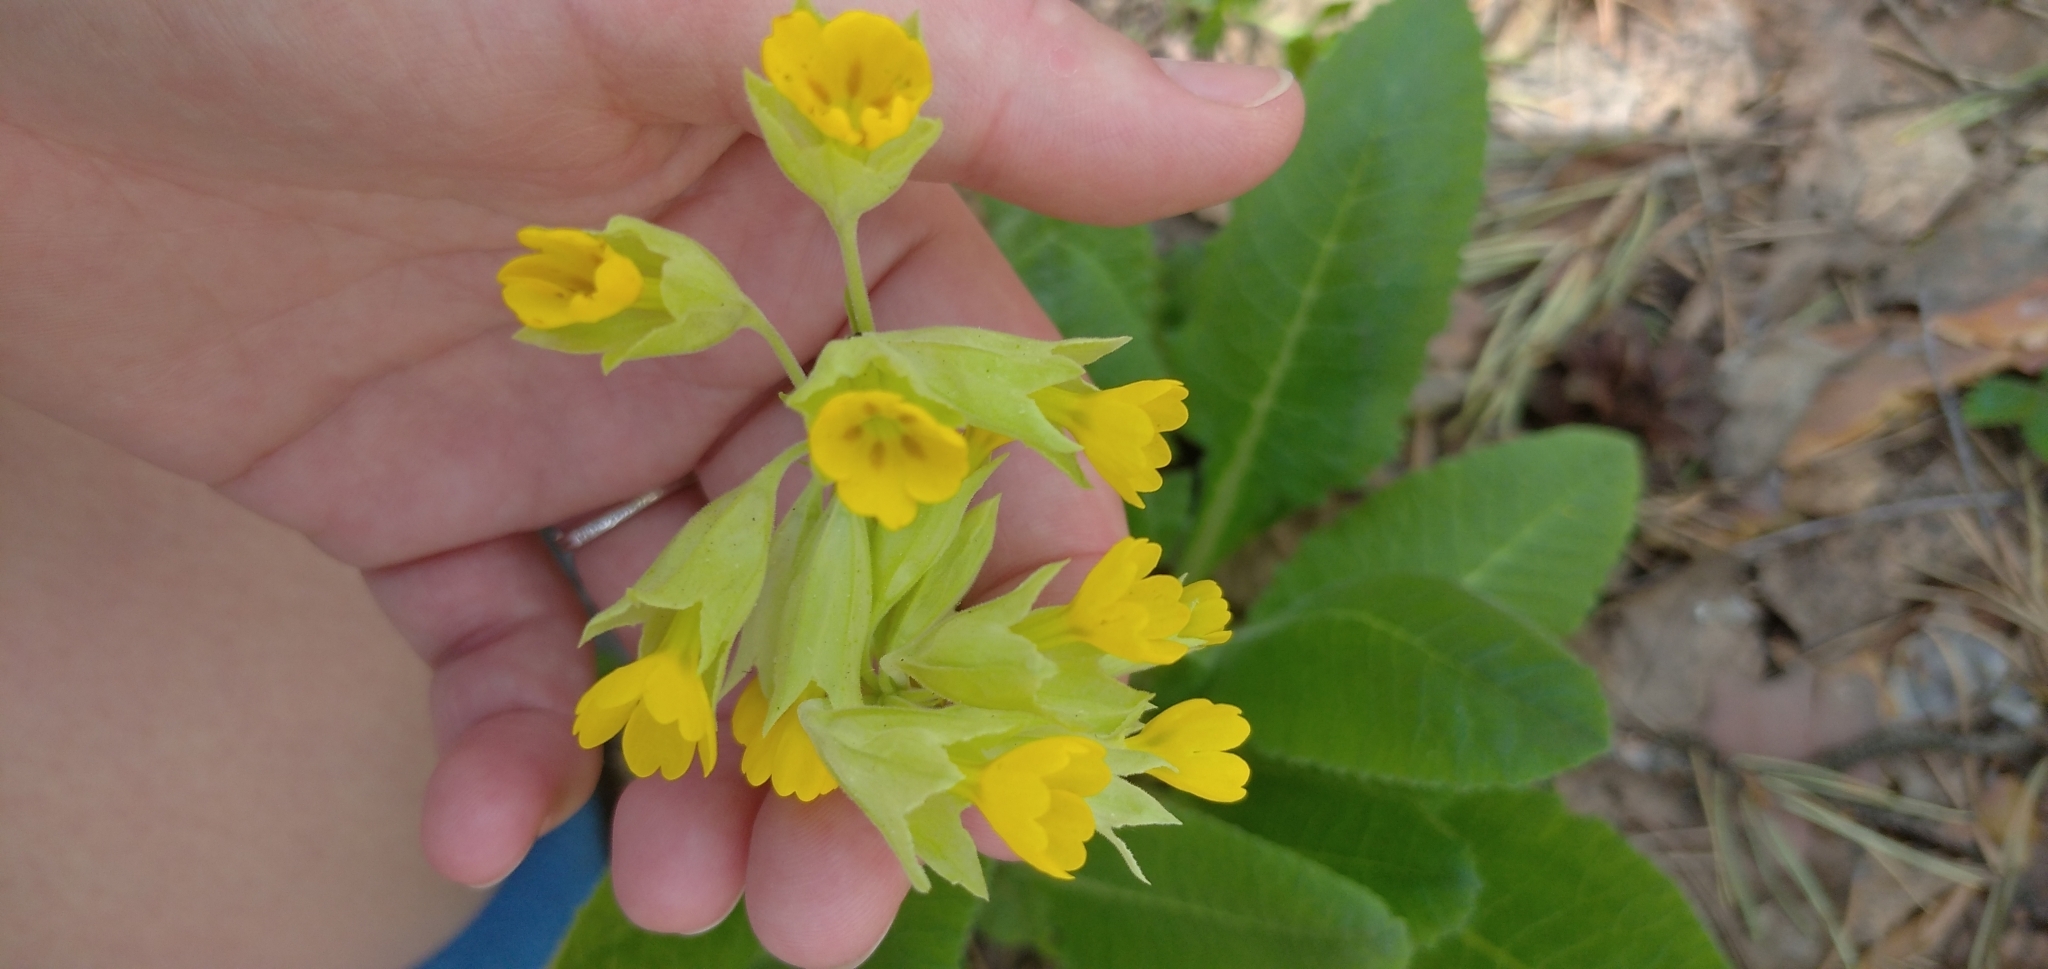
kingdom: Plantae
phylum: Tracheophyta
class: Magnoliopsida
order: Ericales
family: Primulaceae
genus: Primula
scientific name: Primula veris
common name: Cowslip
